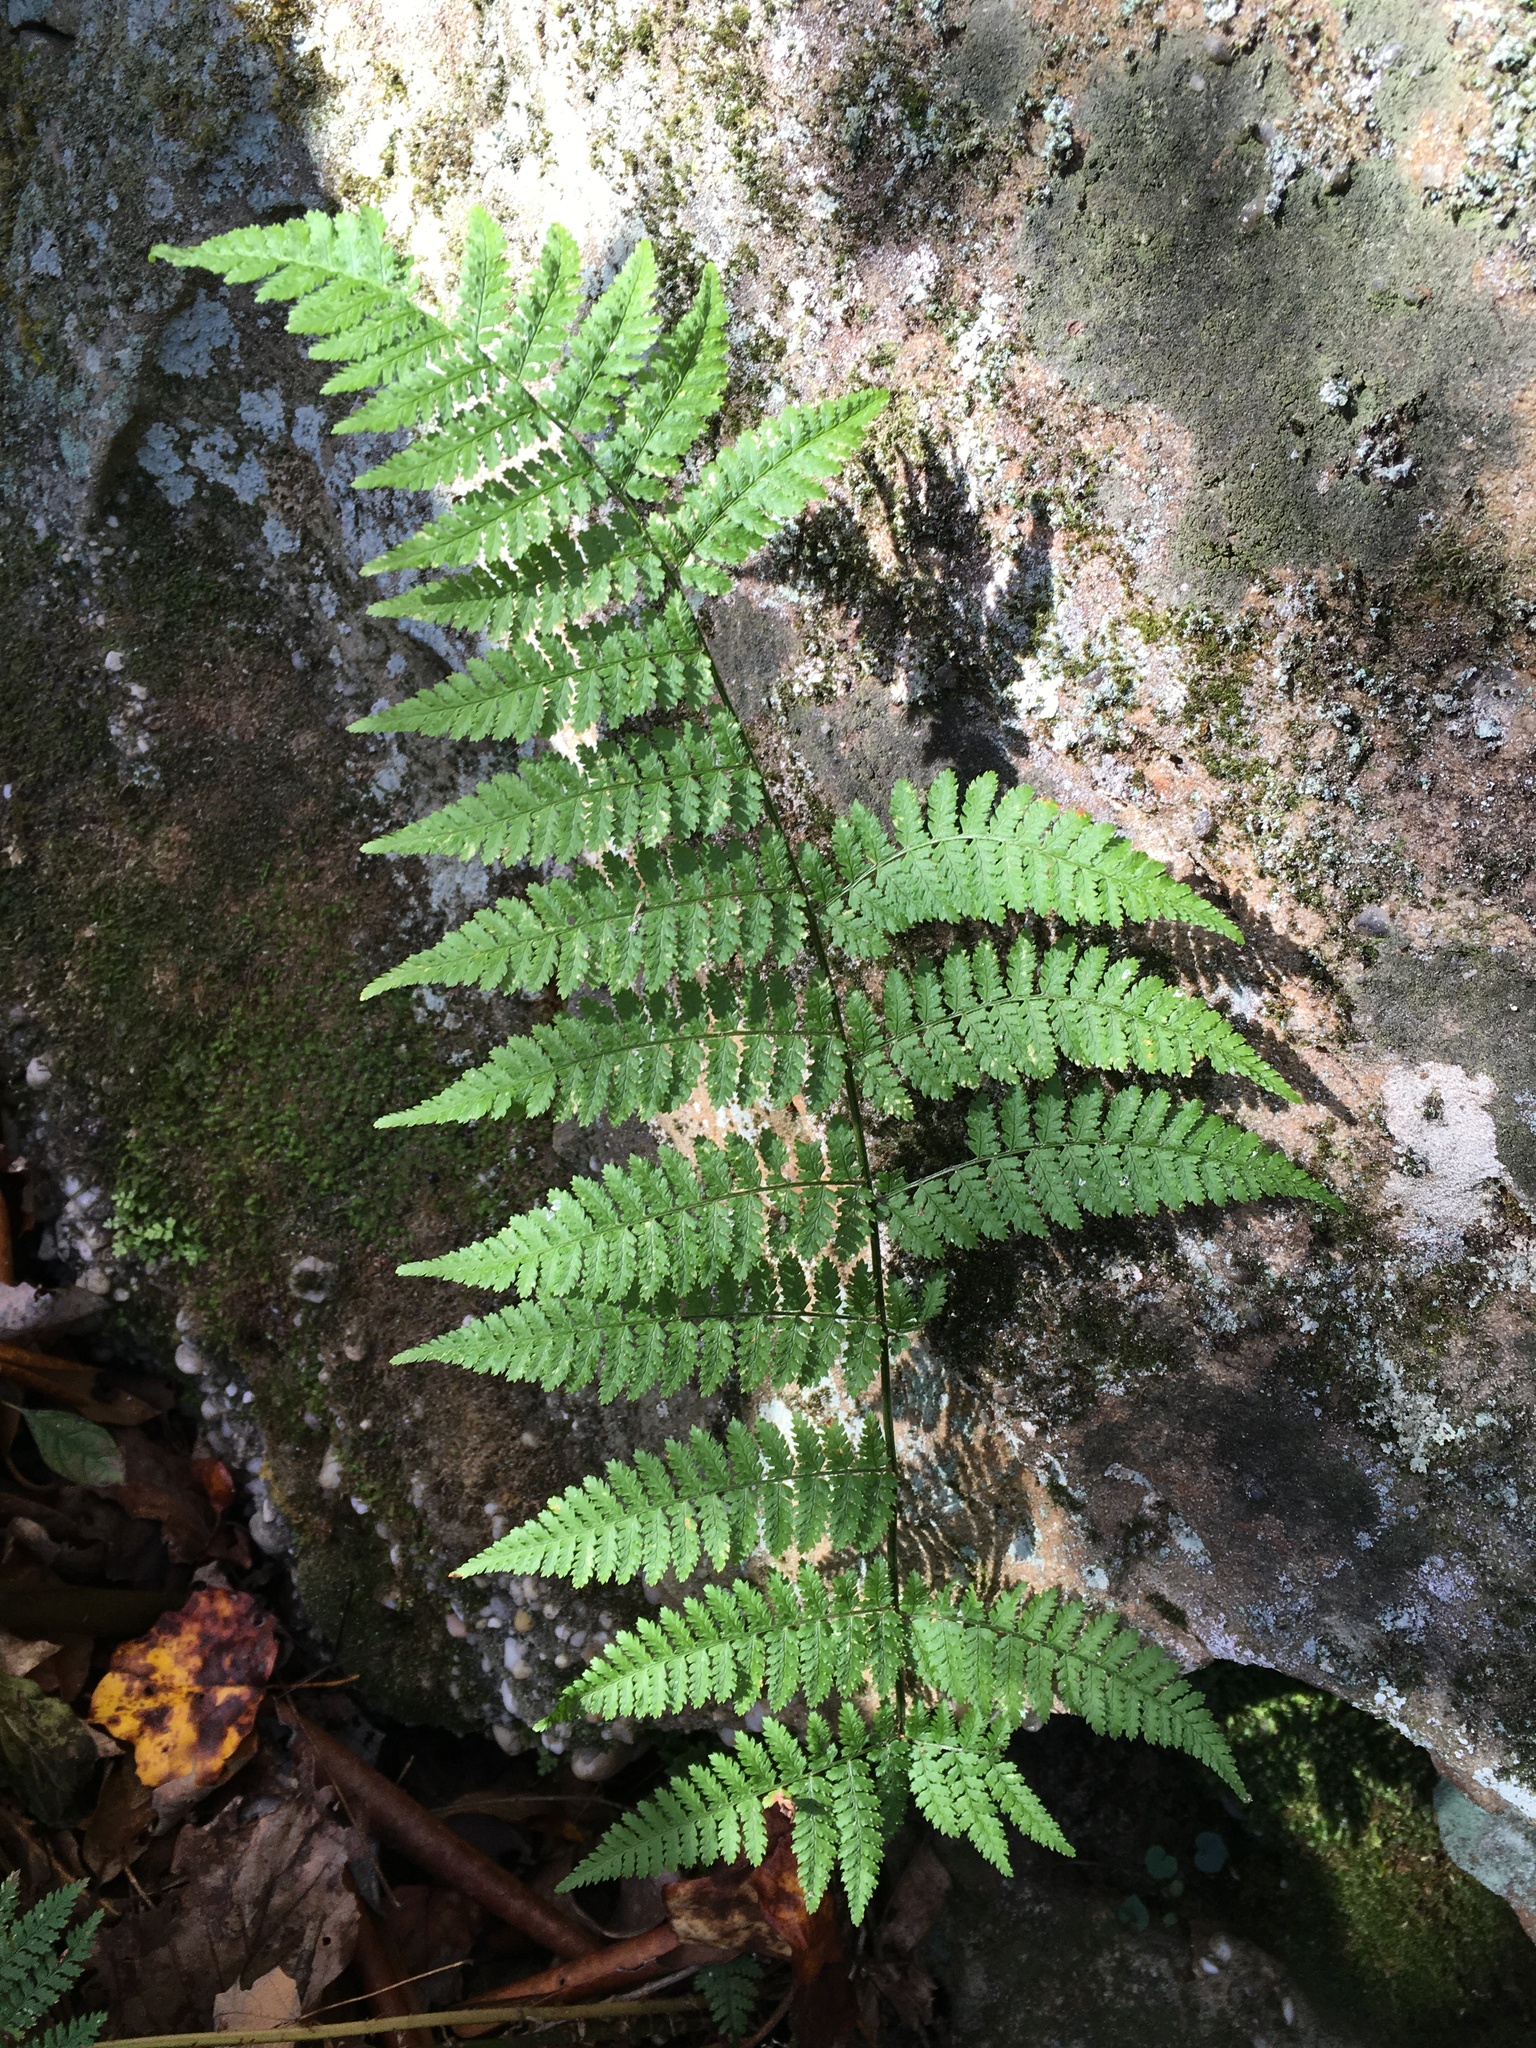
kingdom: Plantae
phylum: Tracheophyta
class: Polypodiopsida
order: Polypodiales
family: Dryopteridaceae
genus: Dryopteris
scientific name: Dryopteris intermedia
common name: Evergreen wood fern
